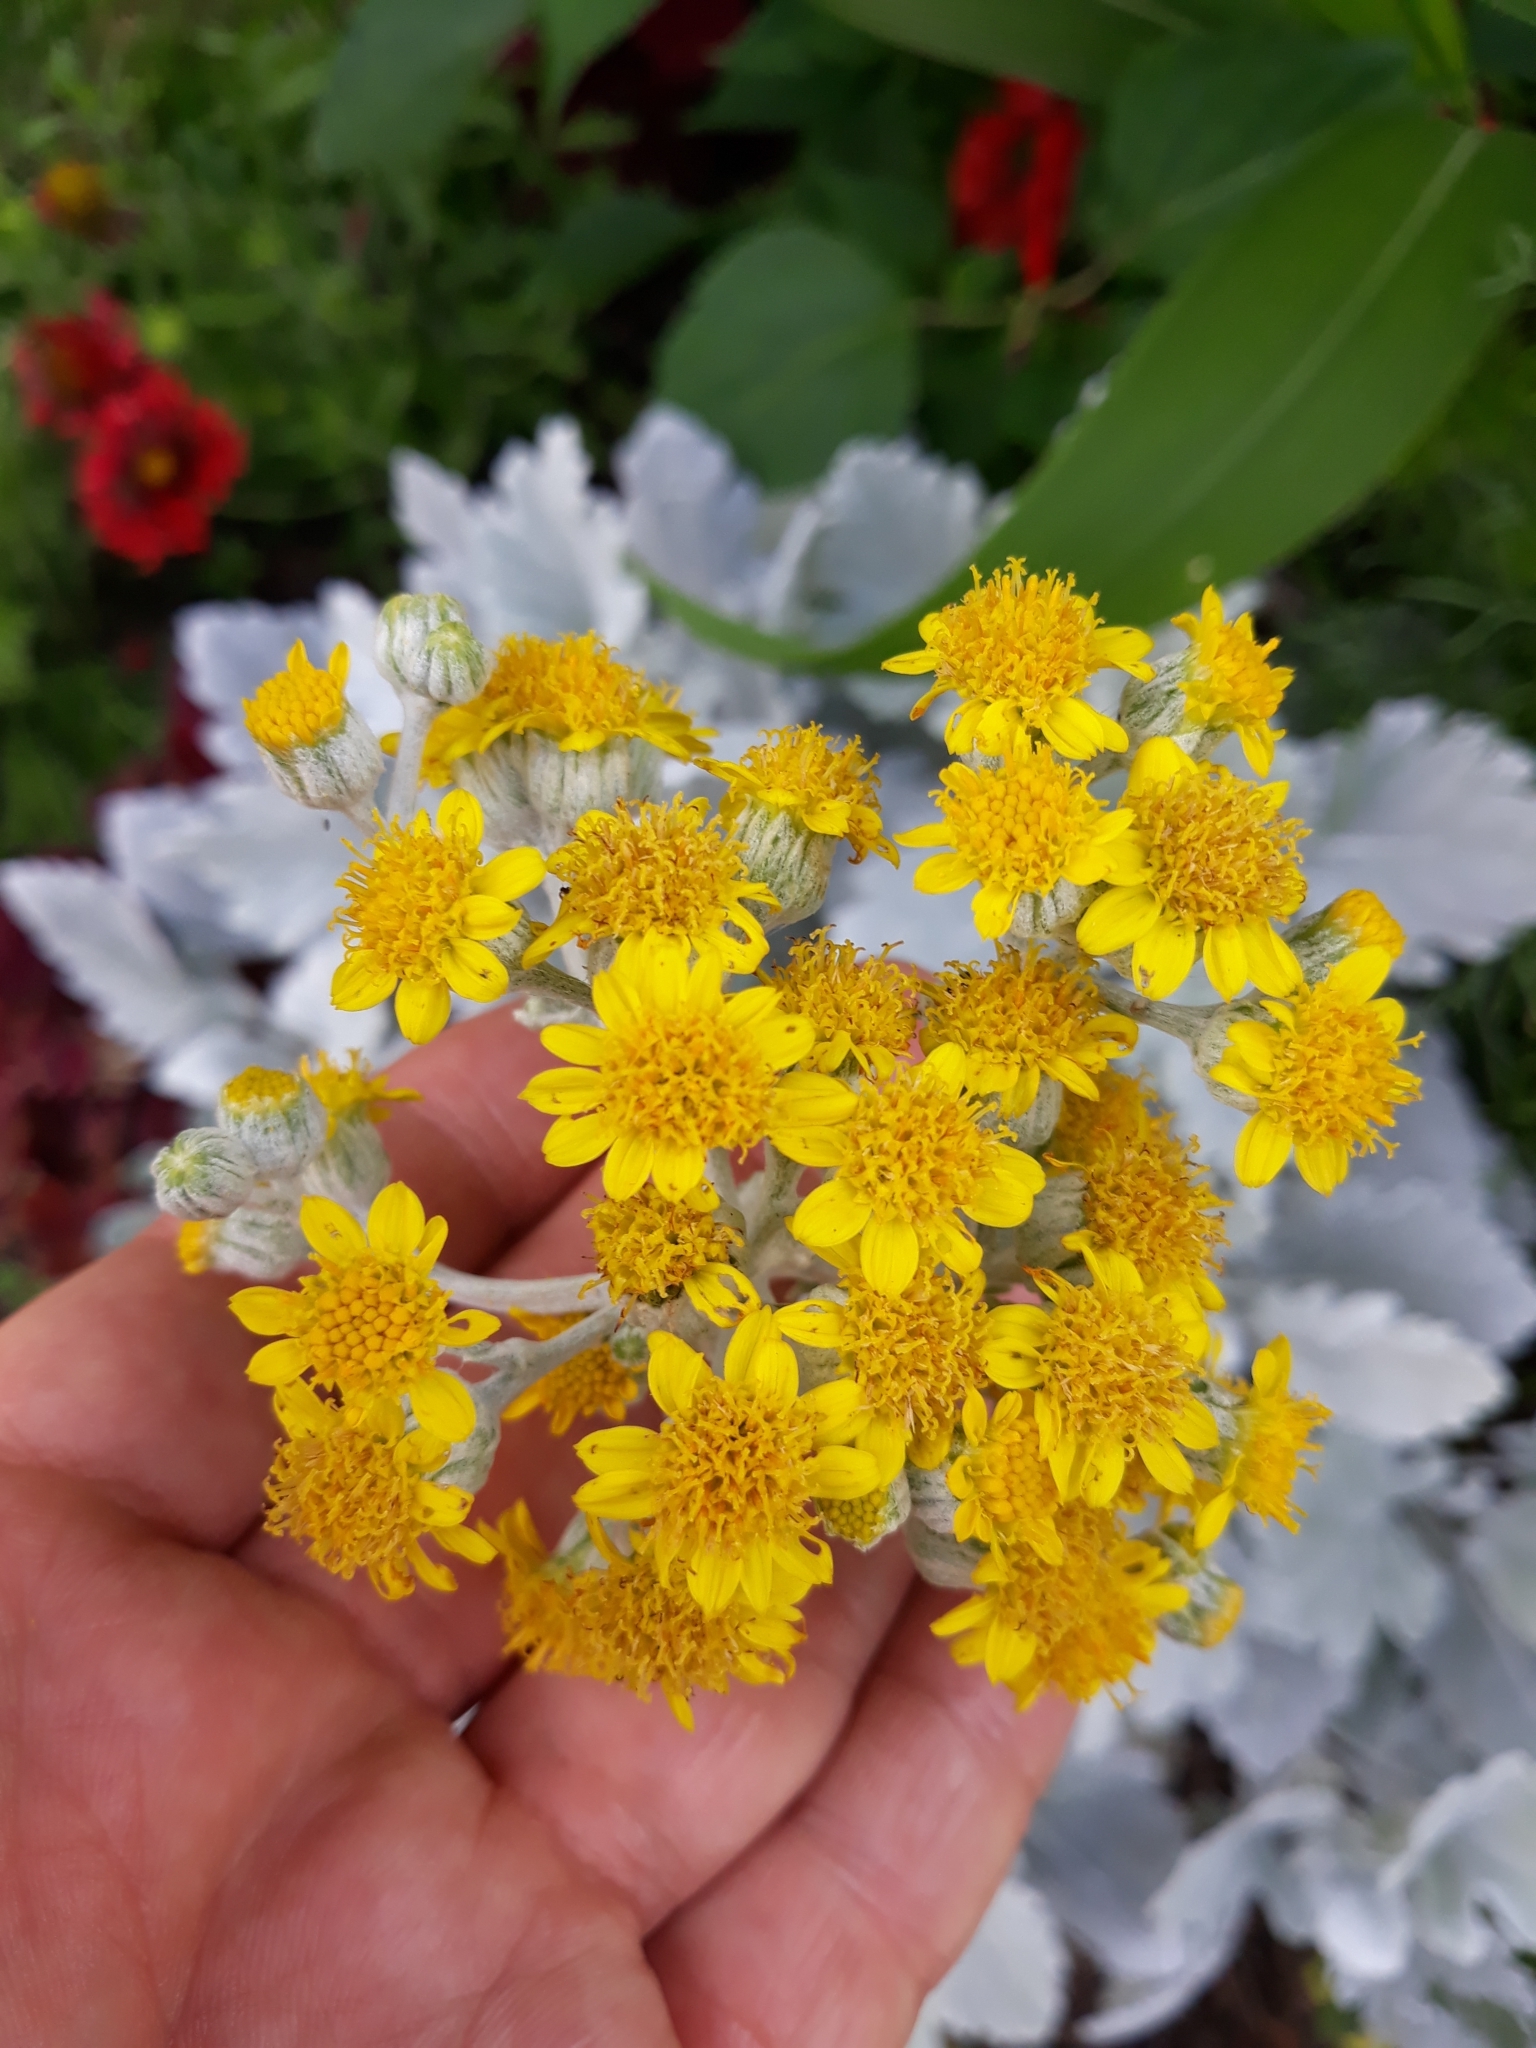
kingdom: Plantae
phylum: Tracheophyta
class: Magnoliopsida
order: Asterales
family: Asteraceae
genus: Jacobaea
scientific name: Jacobaea maritima
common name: Silver ragwort
